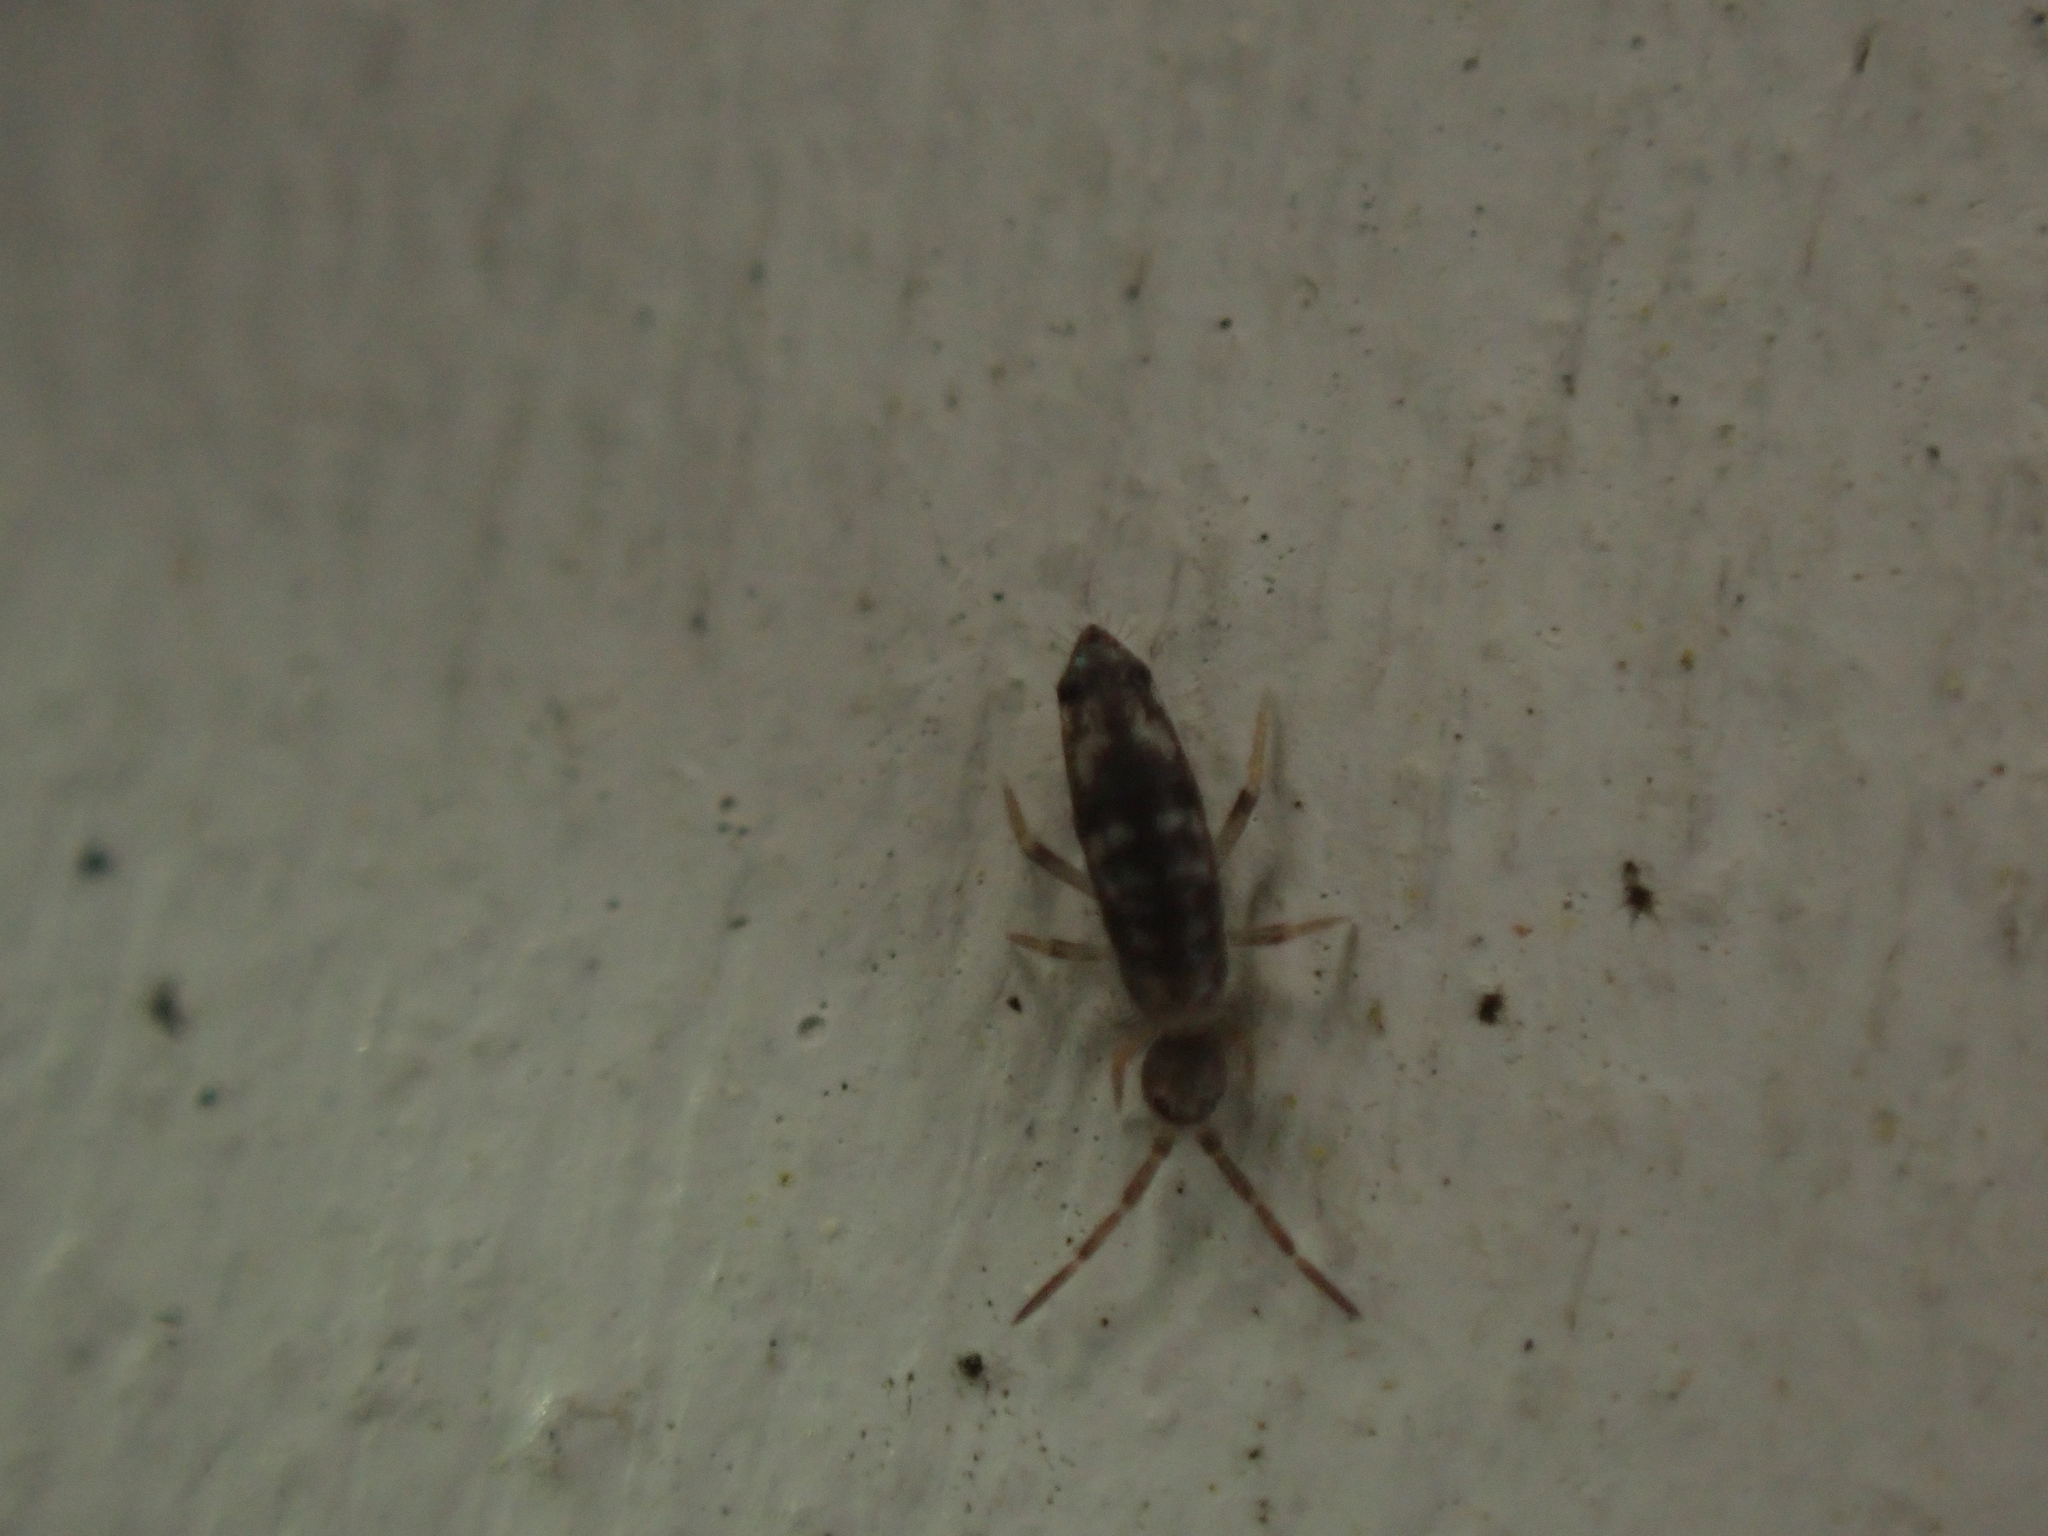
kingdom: Animalia
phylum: Arthropoda
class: Collembola
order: Entomobryomorpha
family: Entomobryidae
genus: Seira
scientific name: Seira bipunctata
